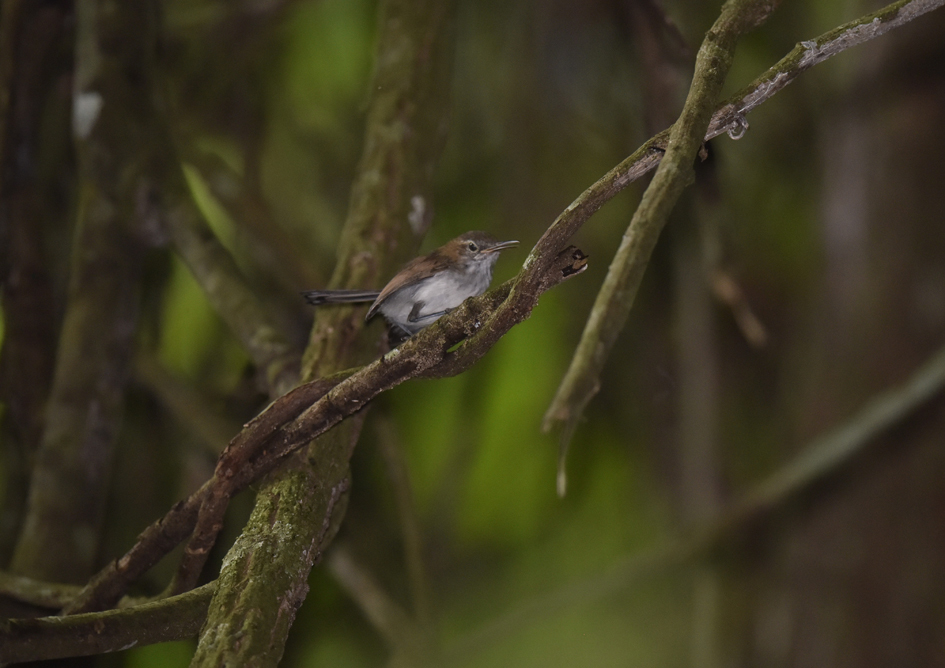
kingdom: Animalia
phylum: Chordata
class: Aves
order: Passeriformes
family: Polioptilidae
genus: Ramphocaenus
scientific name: Ramphocaenus melanurus
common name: Long-billed gnatwren
